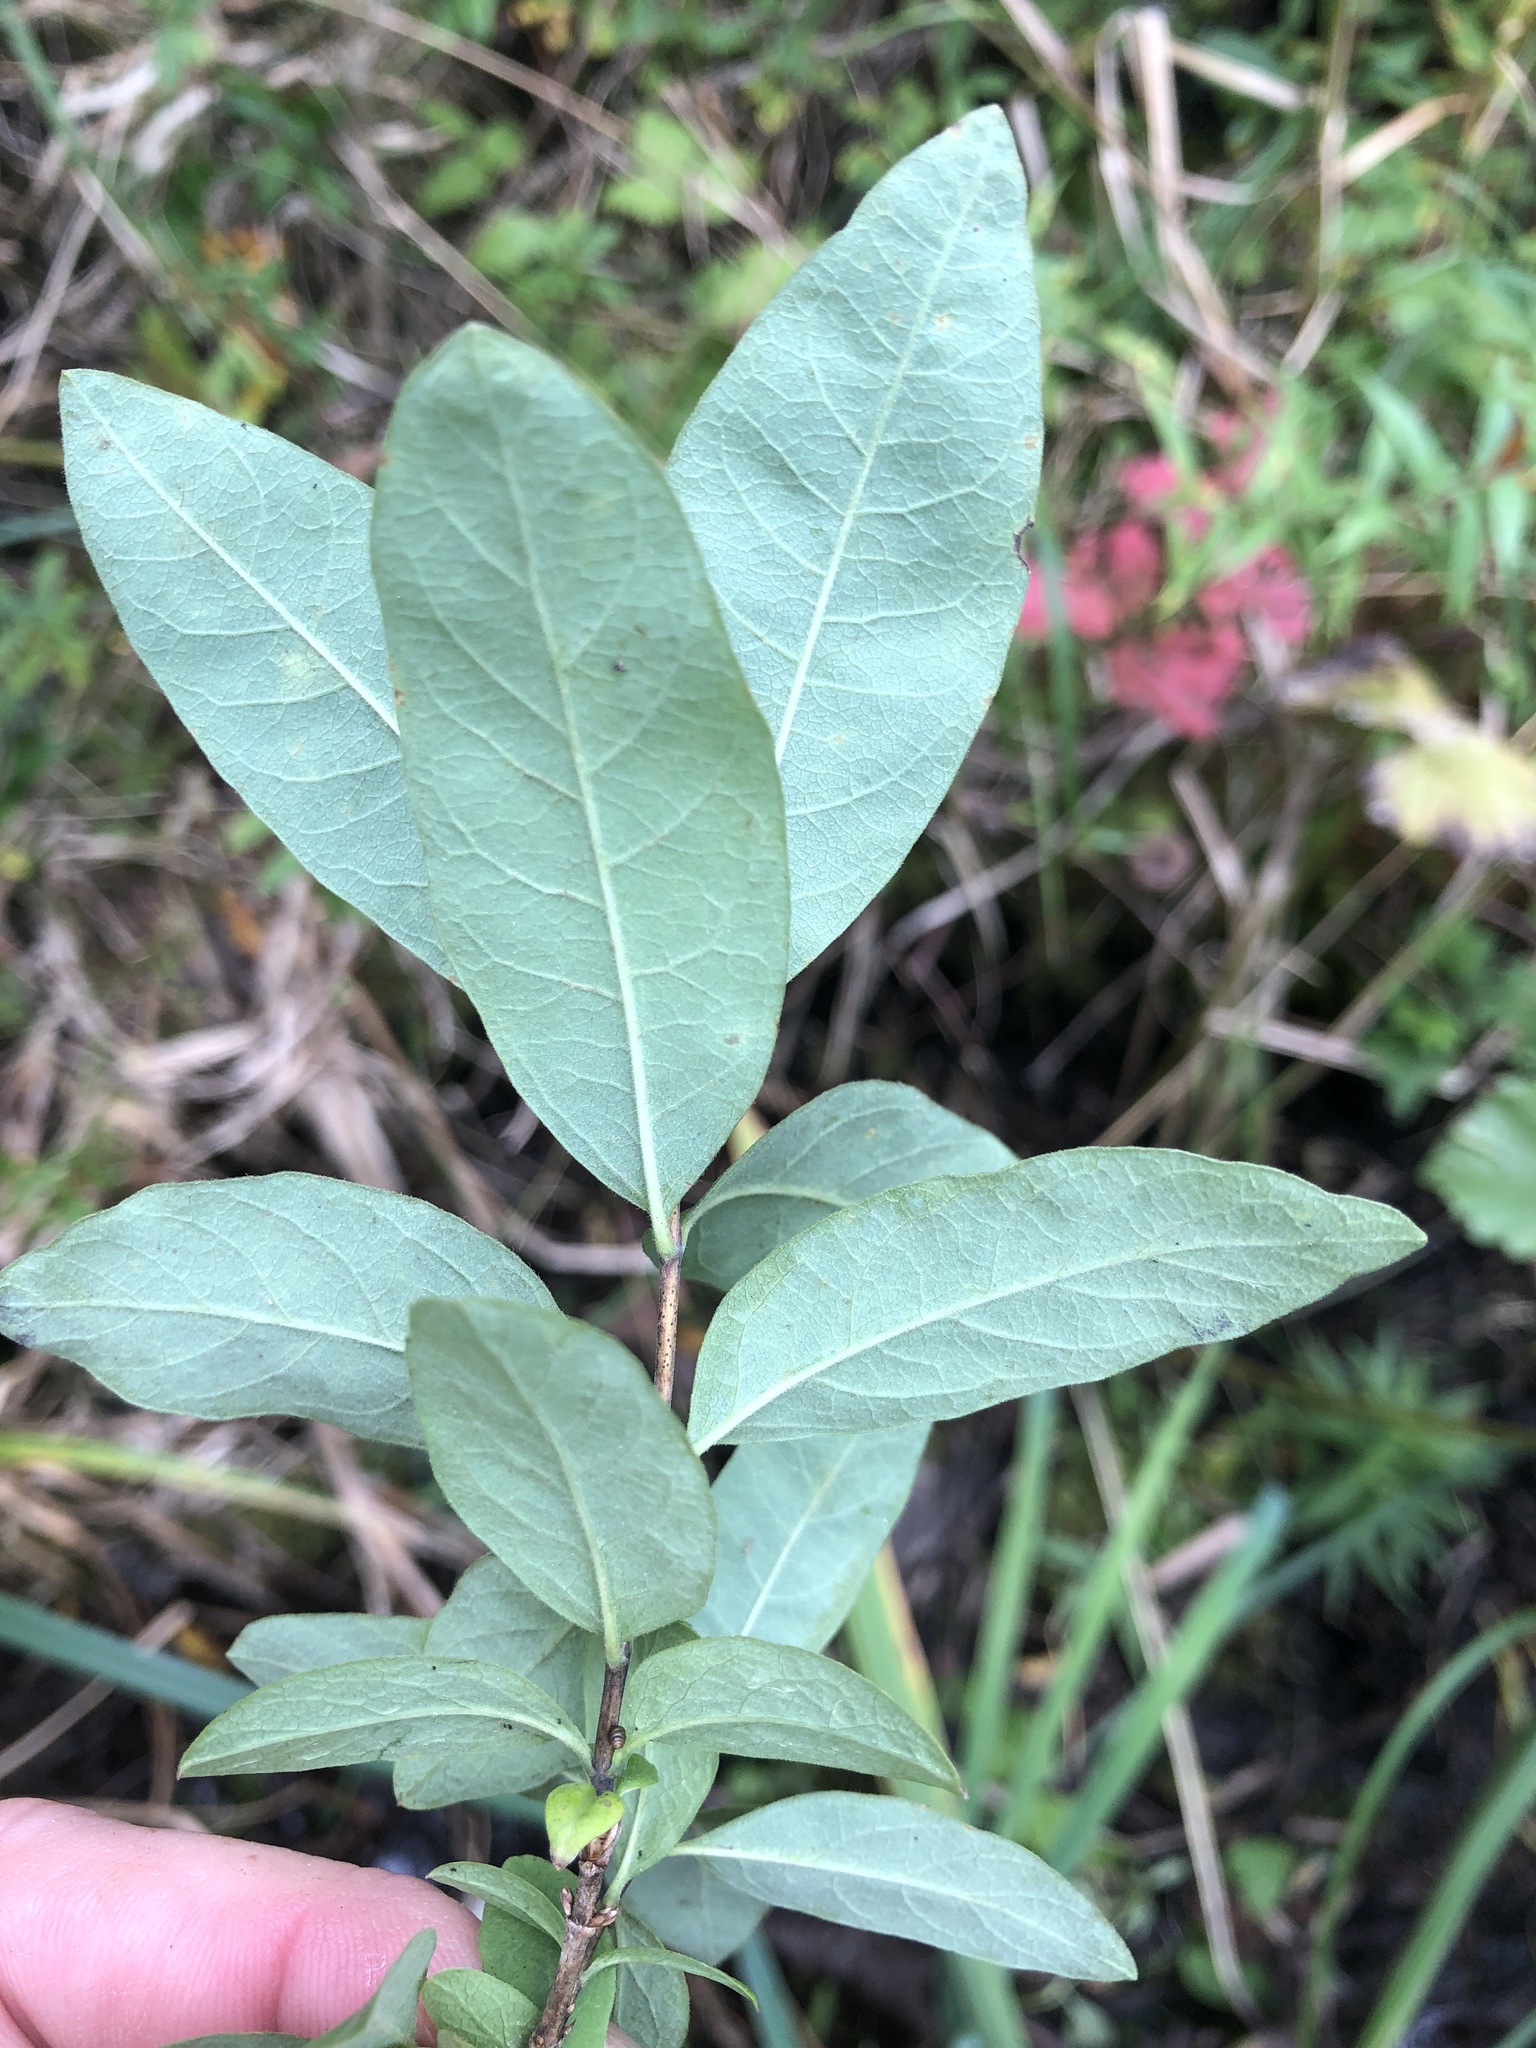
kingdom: Plantae
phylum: Tracheophyta
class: Magnoliopsida
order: Dipsacales
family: Caprifoliaceae
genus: Lonicera
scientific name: Lonicera oblongifolia
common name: Swamp fly honeysuckle
